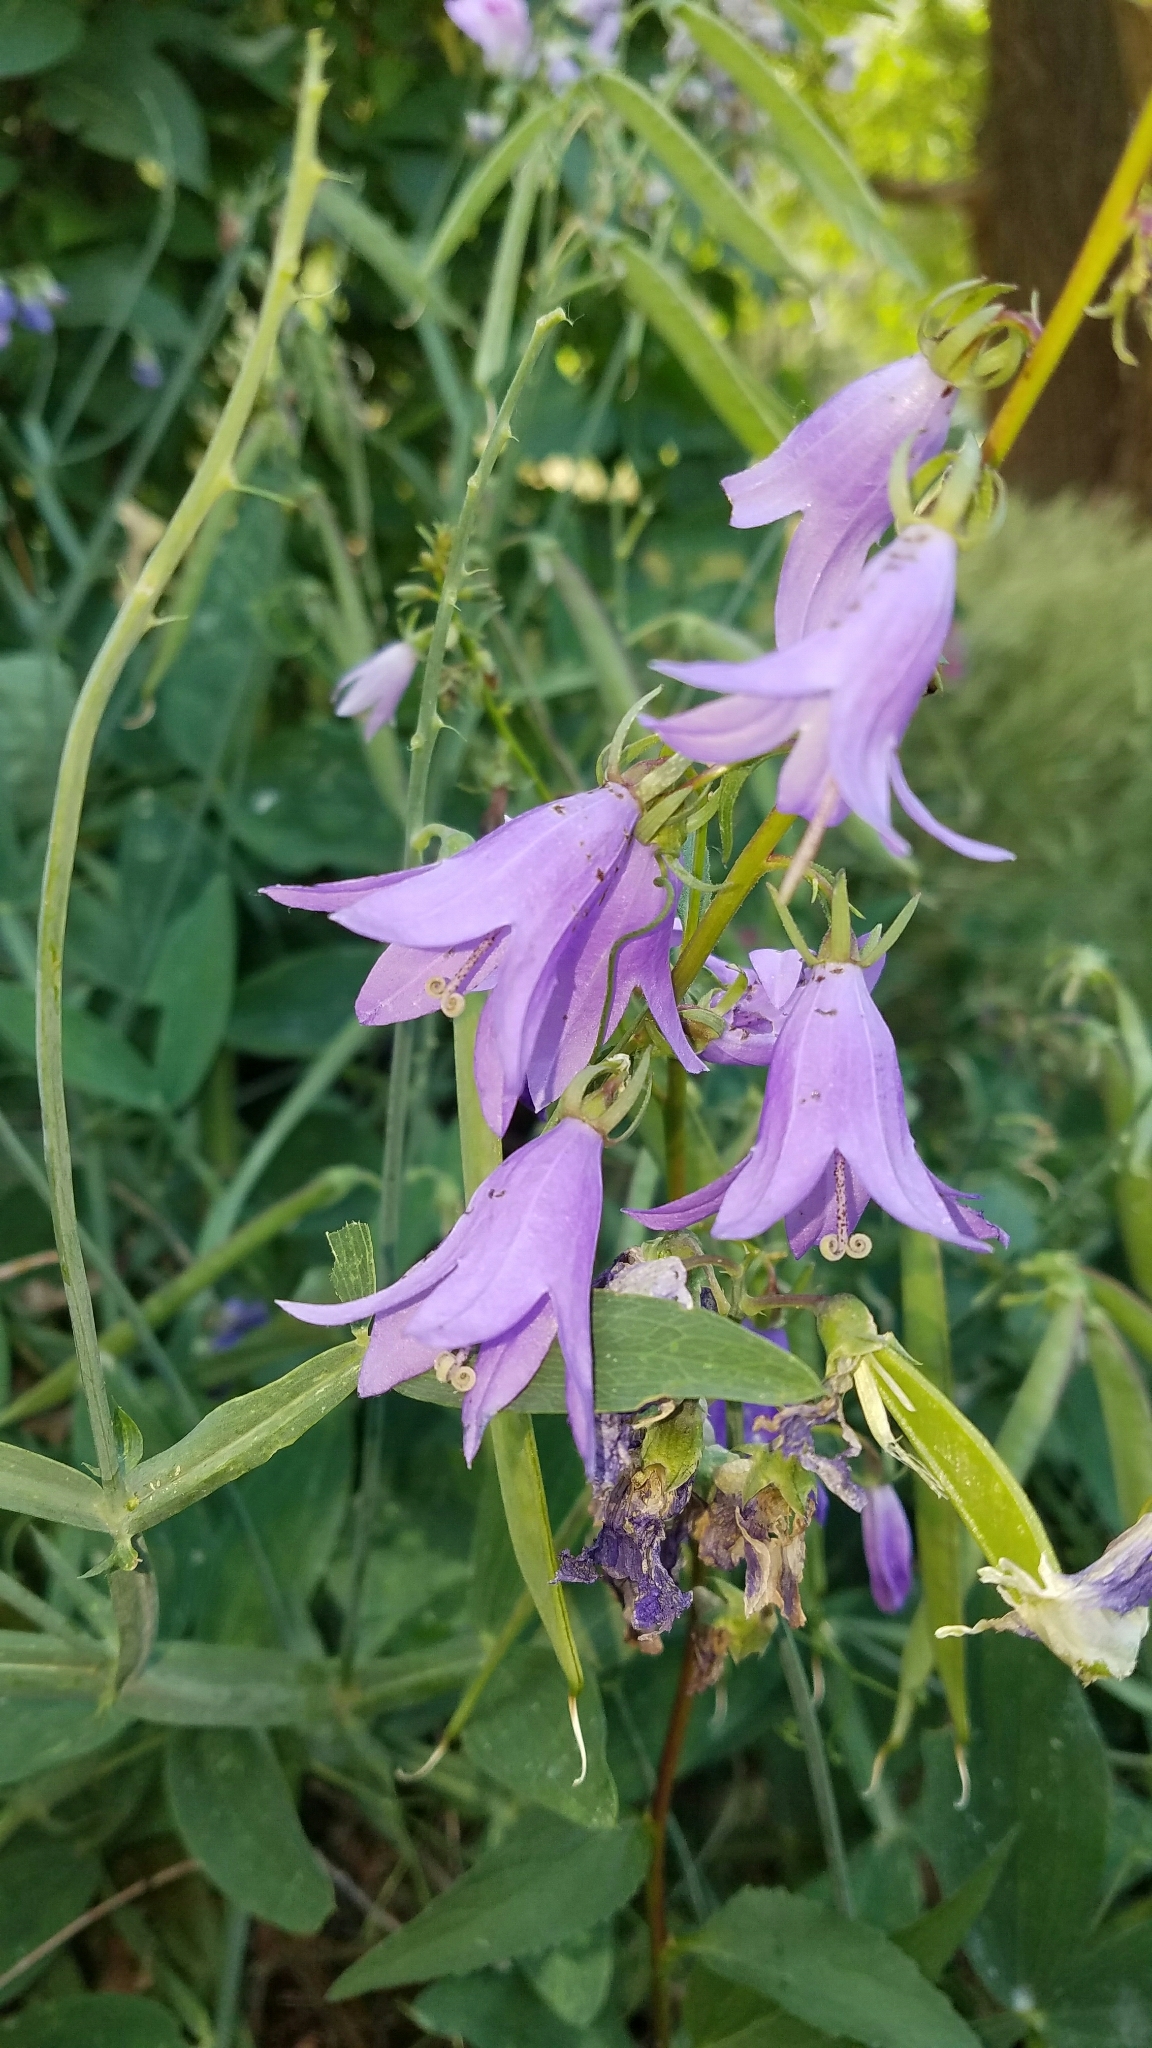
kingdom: Plantae
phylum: Tracheophyta
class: Magnoliopsida
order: Asterales
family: Campanulaceae
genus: Campanula
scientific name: Campanula rapunculoides
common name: Creeping bellflower
